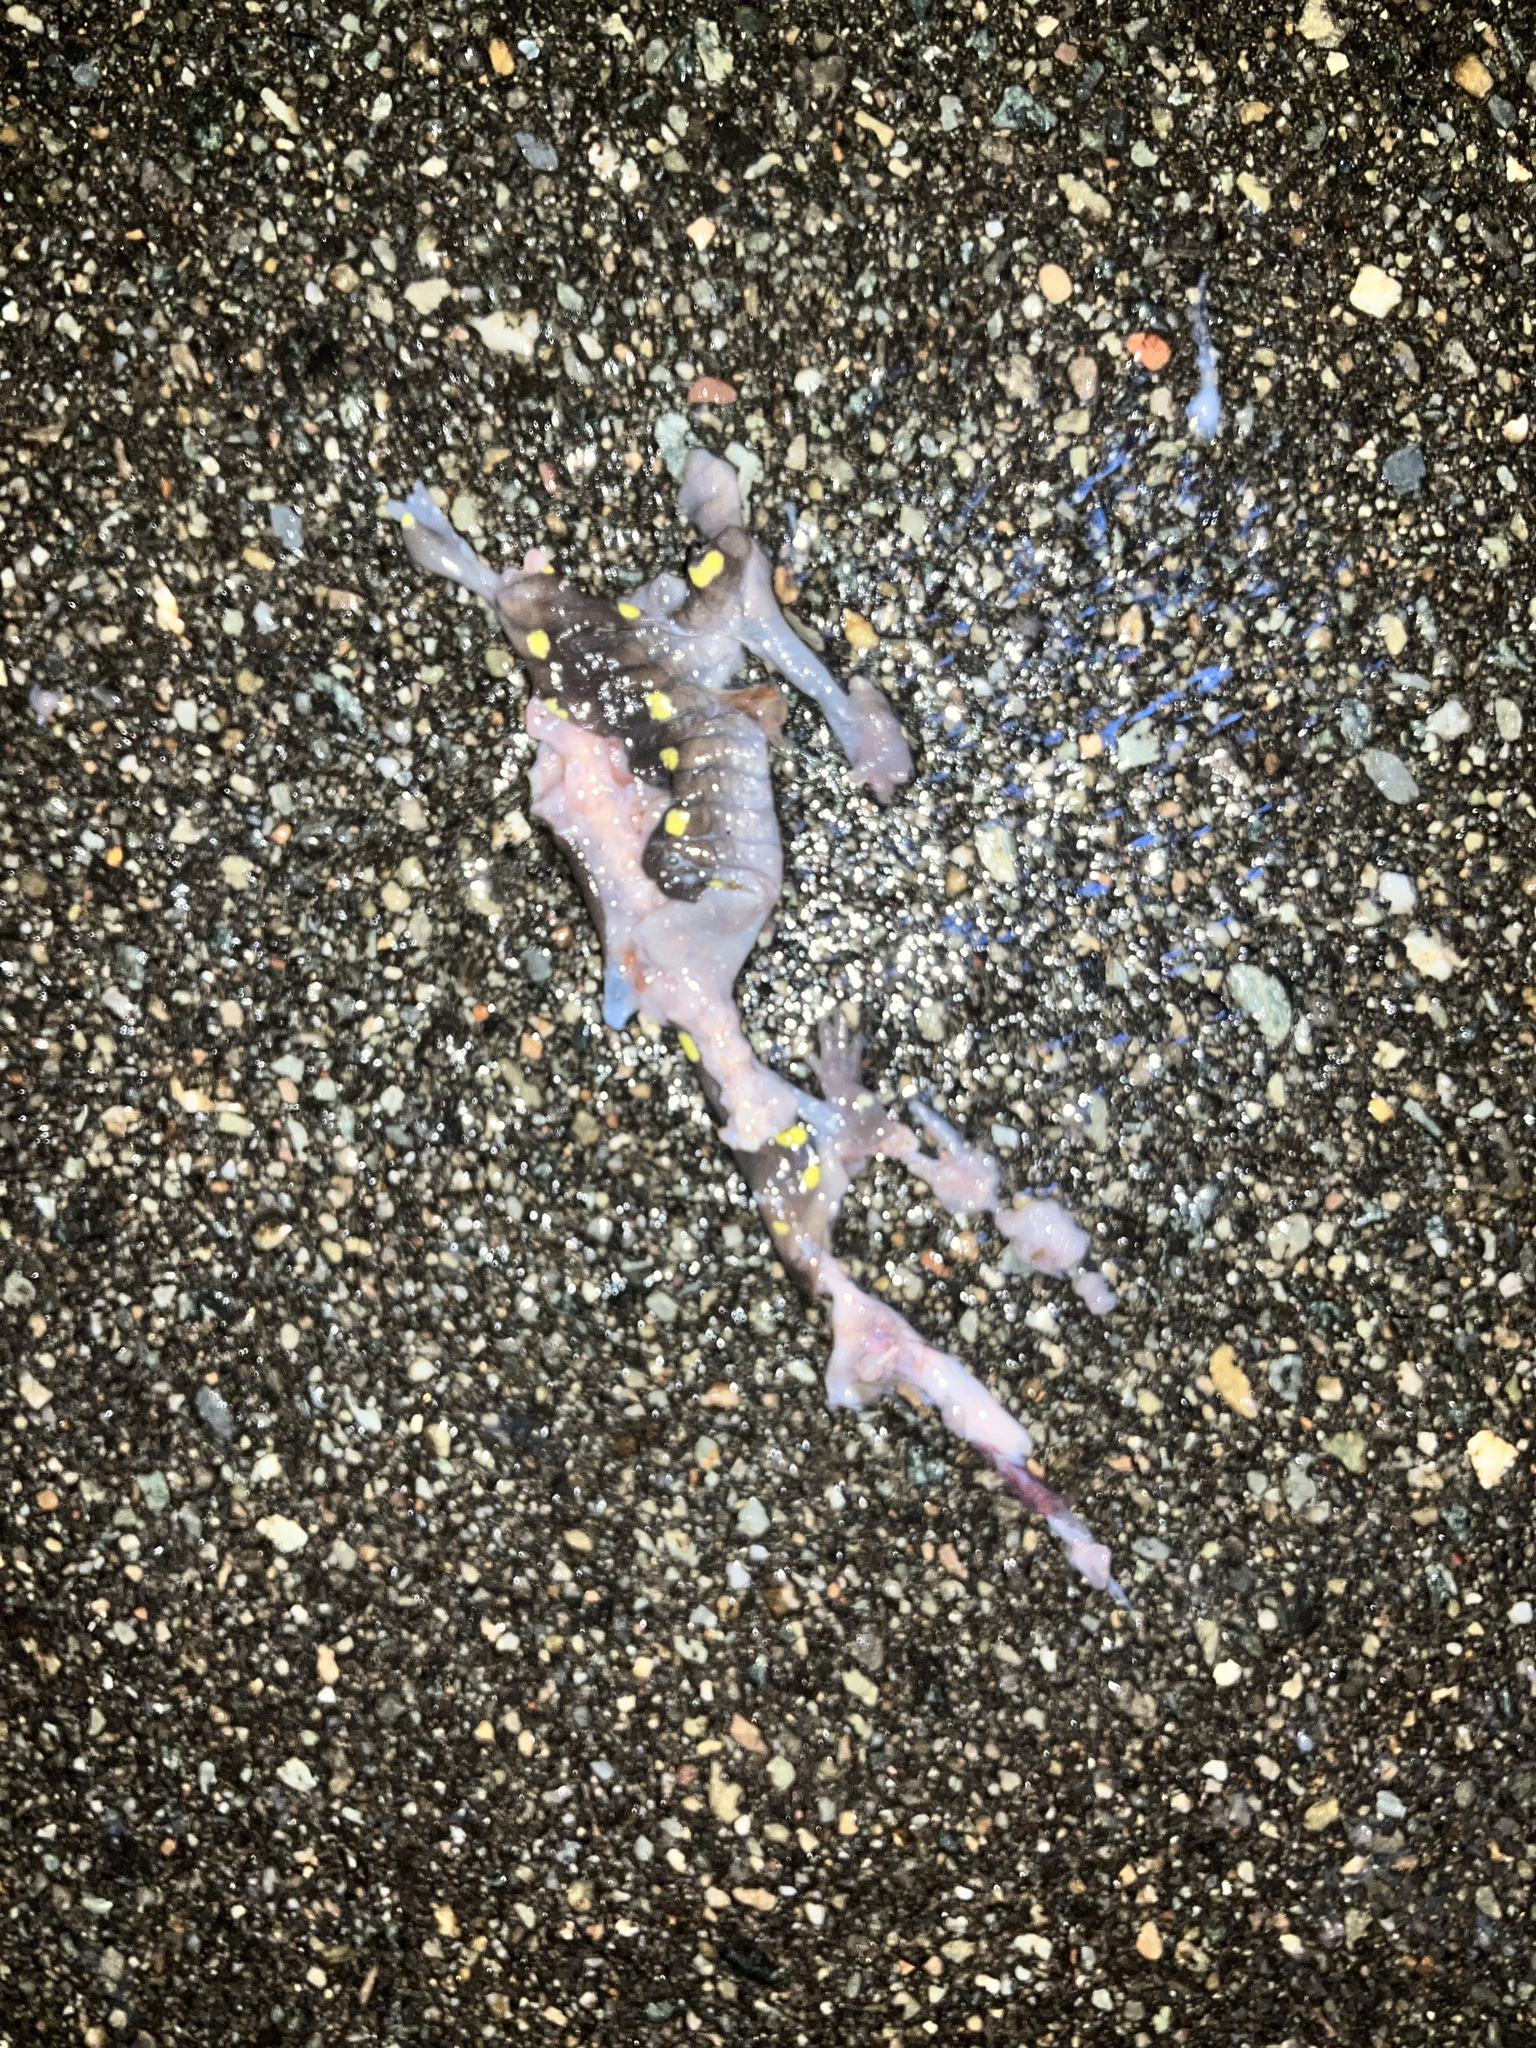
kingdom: Animalia
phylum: Chordata
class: Amphibia
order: Caudata
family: Ambystomatidae
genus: Ambystoma
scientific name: Ambystoma maculatum
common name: Spotted salamander
